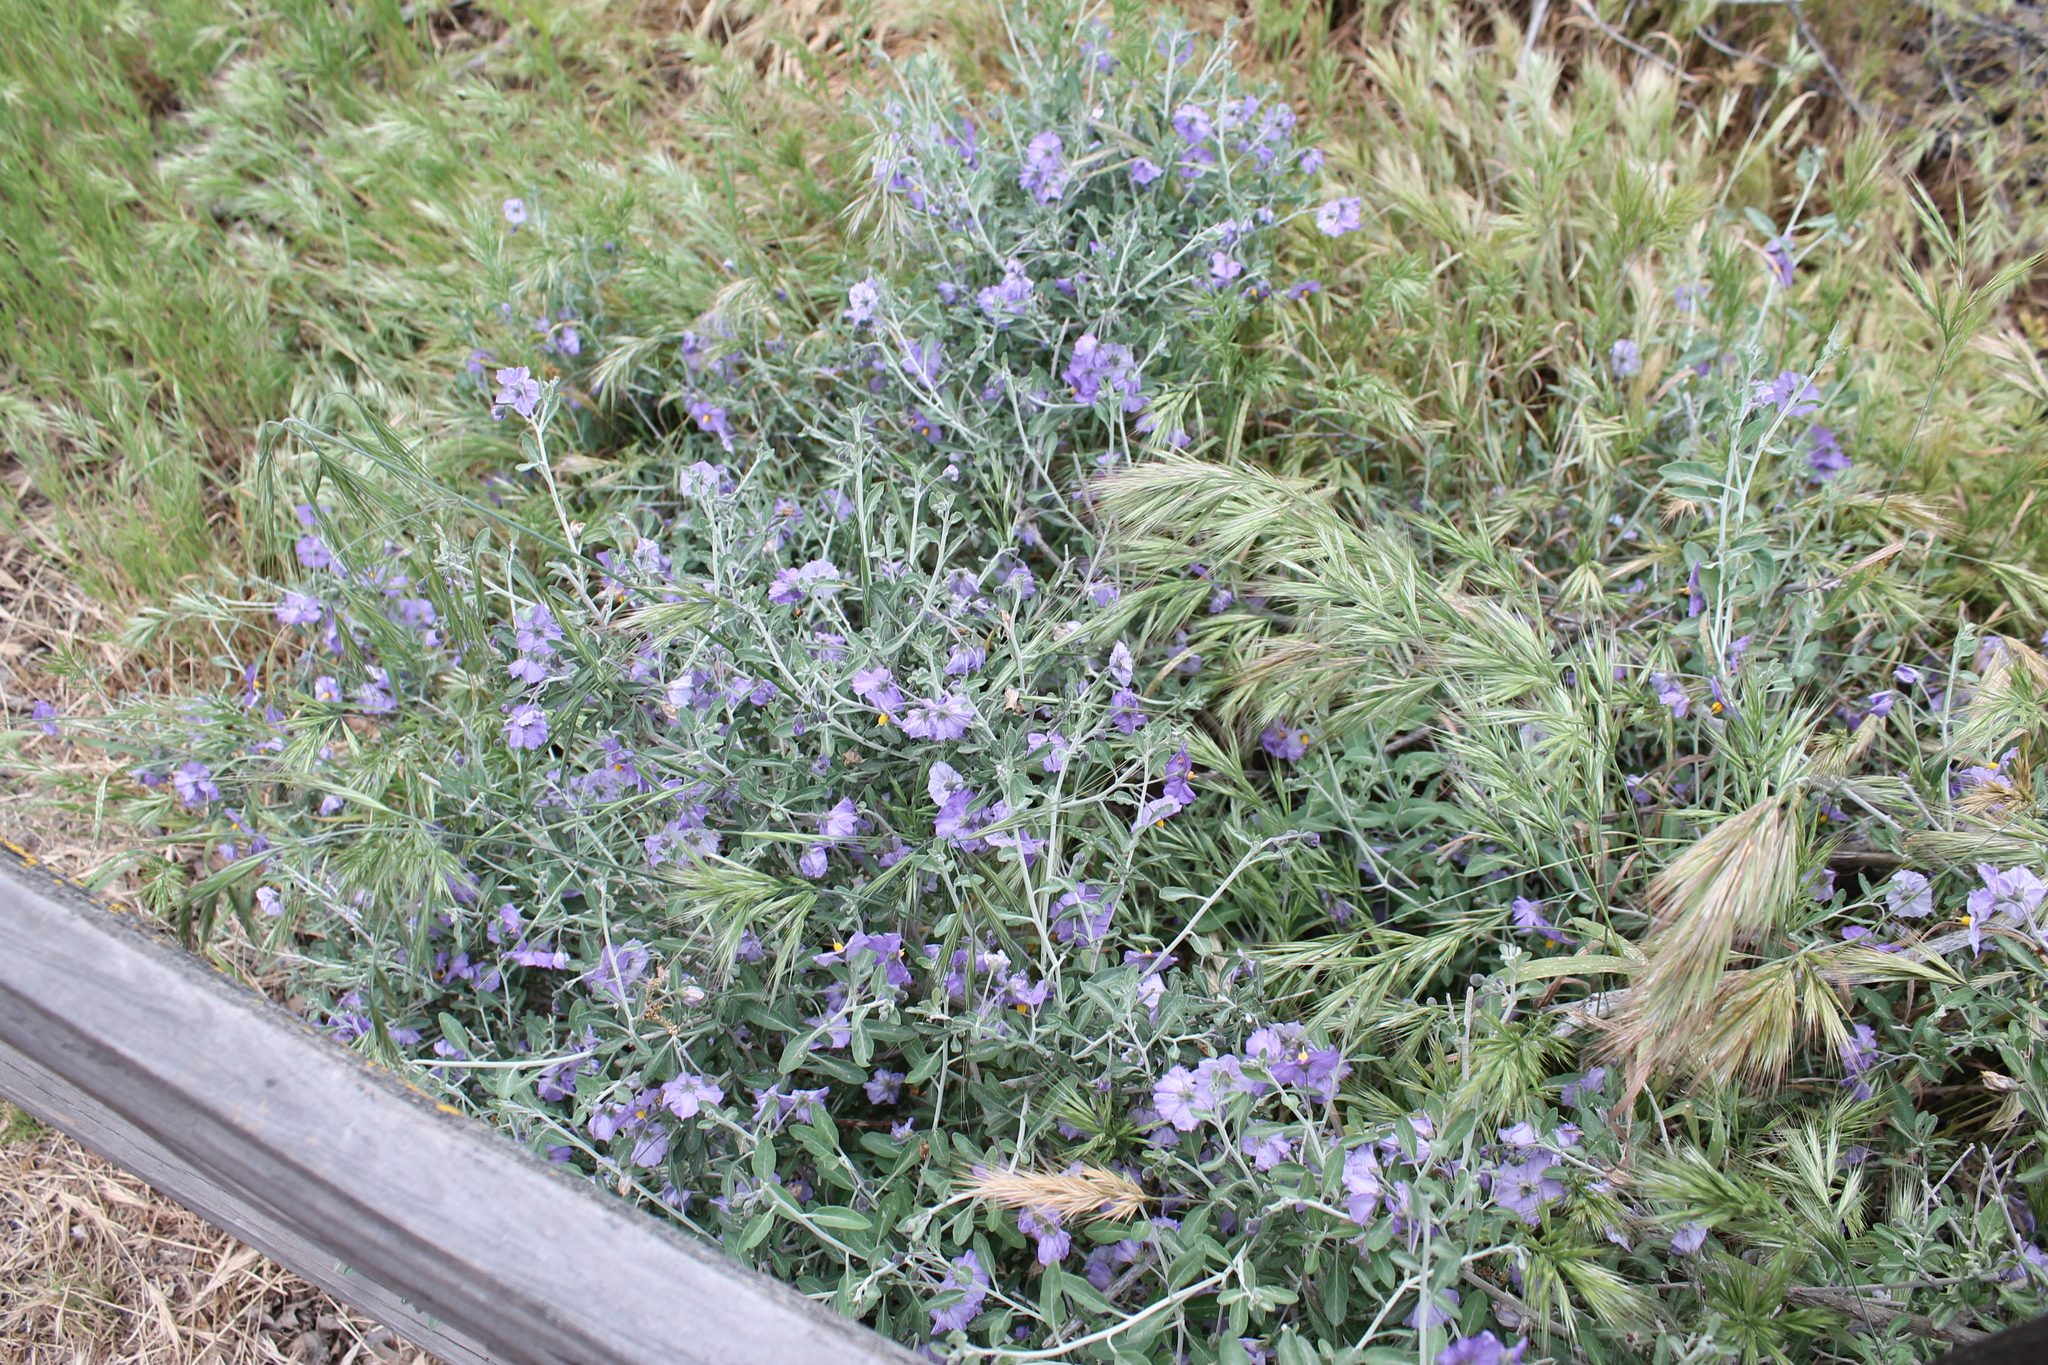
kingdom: Plantae
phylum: Tracheophyta
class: Magnoliopsida
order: Solanales
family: Solanaceae
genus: Solanum
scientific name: Solanum umbelliferum
